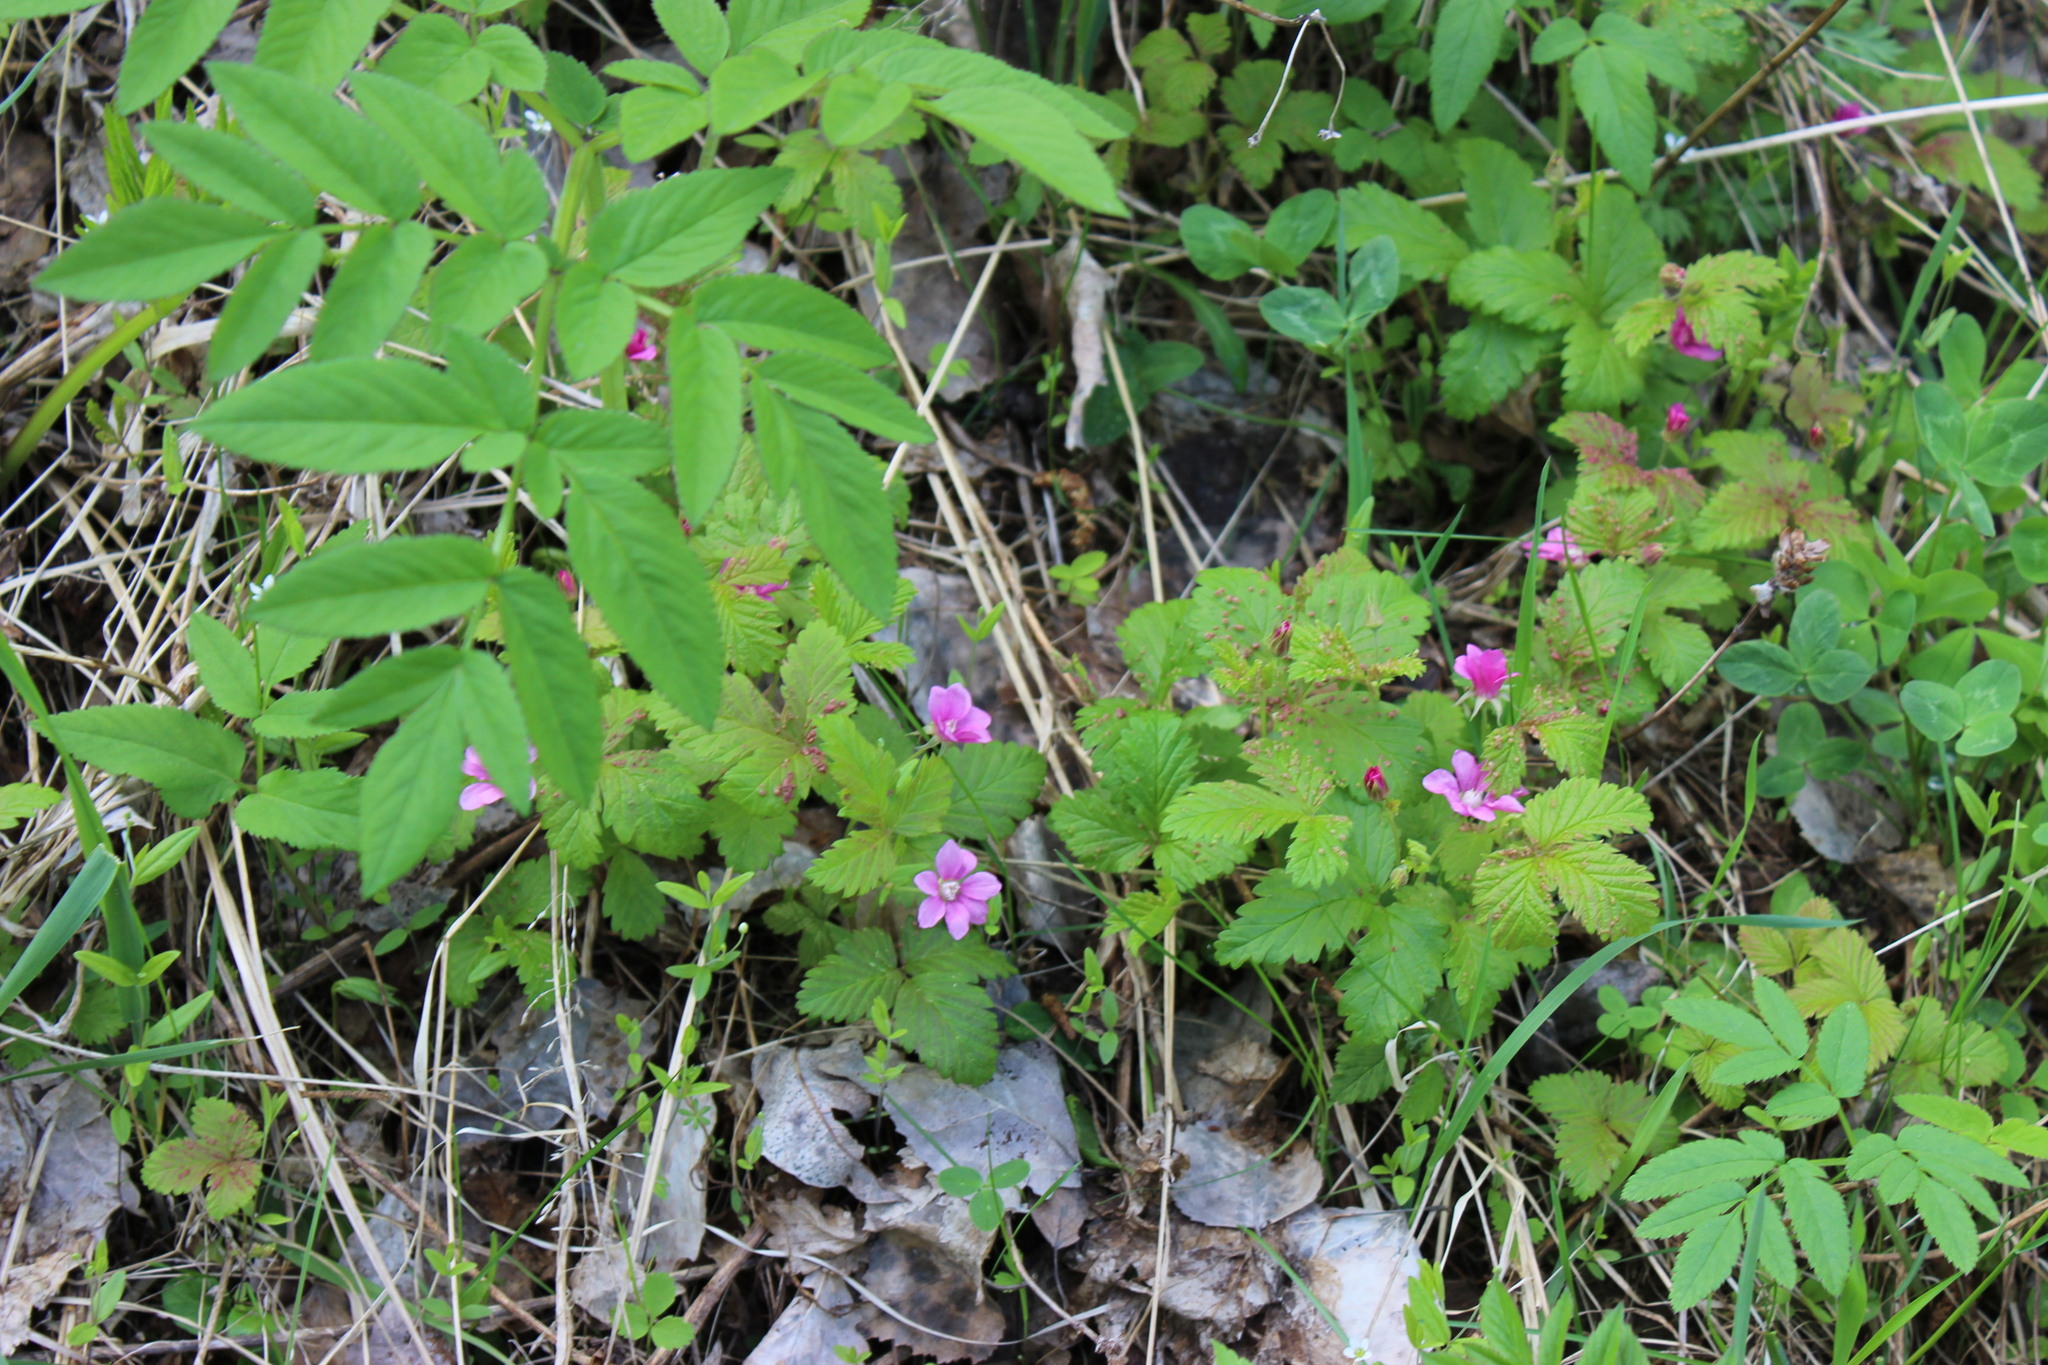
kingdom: Plantae
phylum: Tracheophyta
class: Magnoliopsida
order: Apiales
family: Apiaceae
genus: Angelica
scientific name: Angelica sylvestris
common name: Wild angelica
